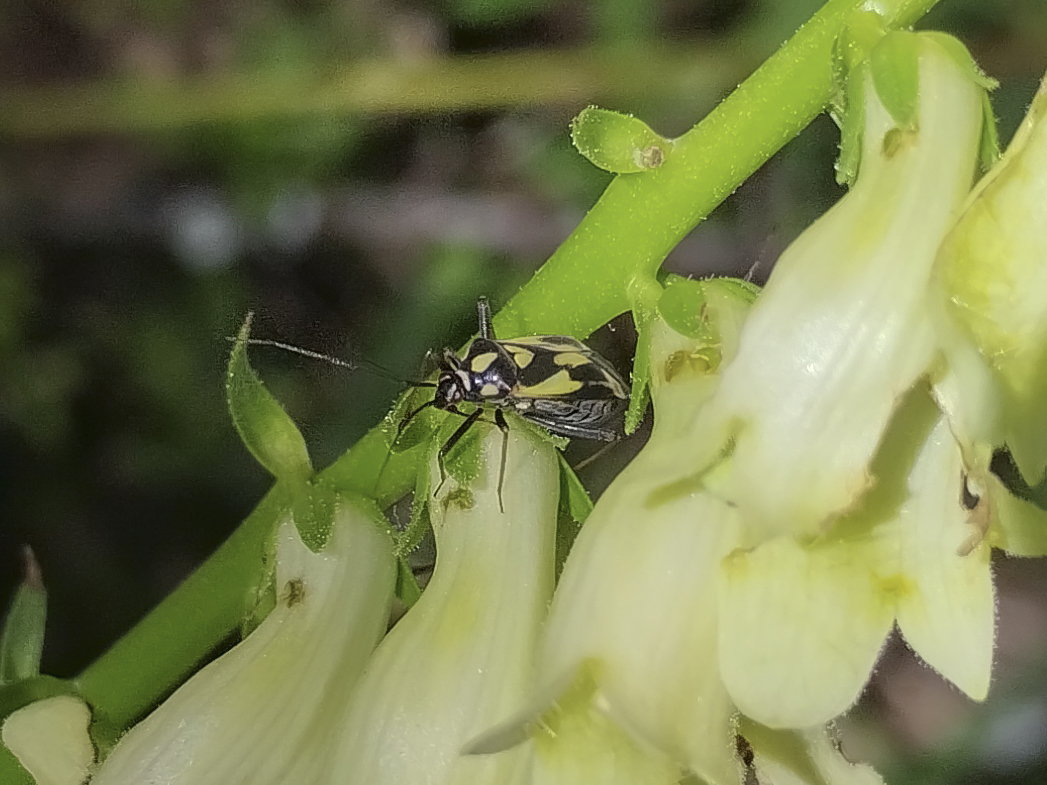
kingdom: Animalia
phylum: Arthropoda
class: Insecta
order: Hemiptera
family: Miridae
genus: Grypocoris
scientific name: Grypocoris sexguttatus
